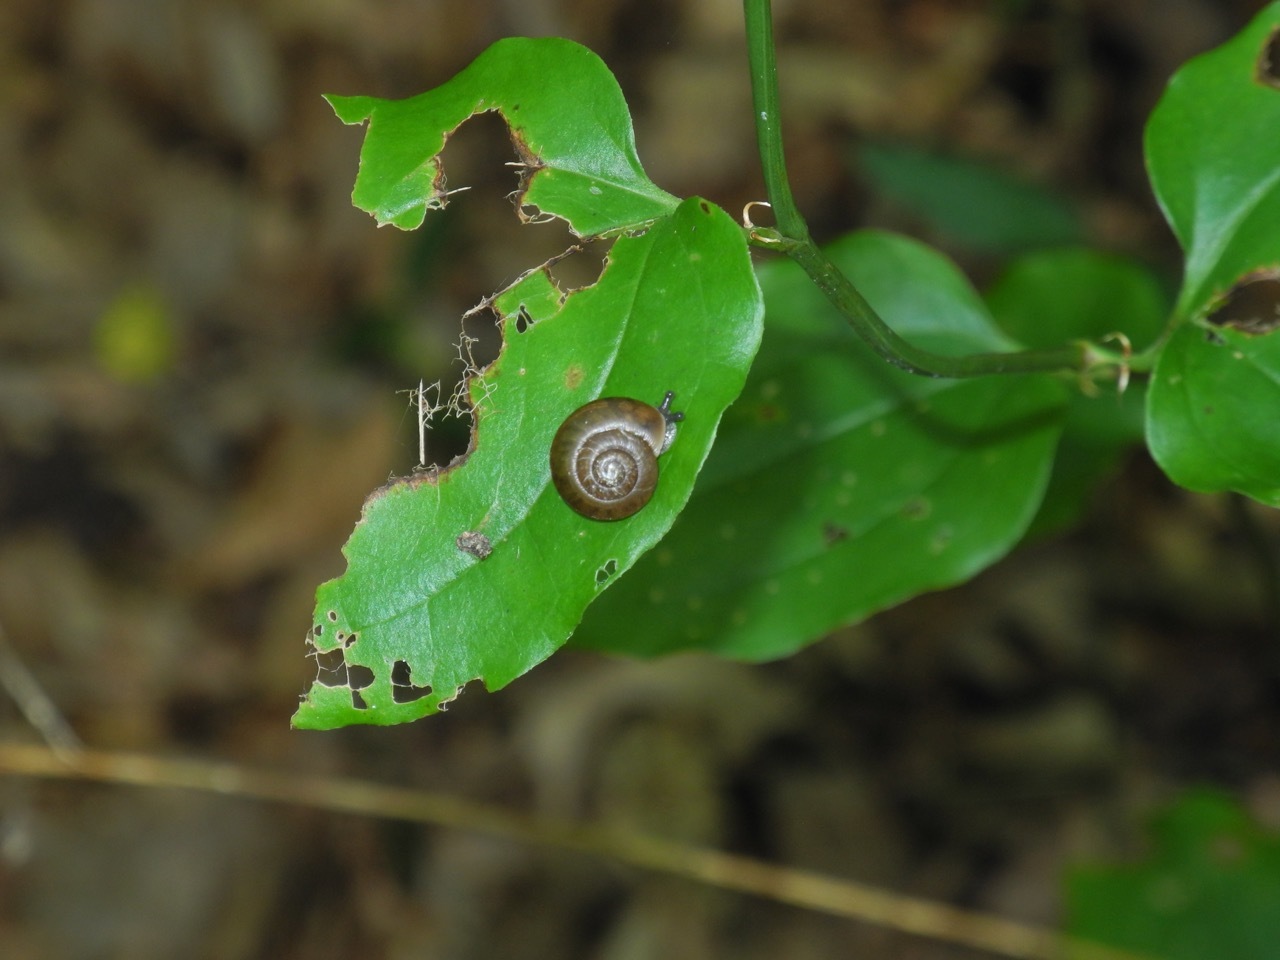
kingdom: Animalia
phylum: Mollusca
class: Gastropoda
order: Stylommatophora
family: Polygyridae
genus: Mesodon
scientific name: Mesodon thyroidus
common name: White-lip globe
